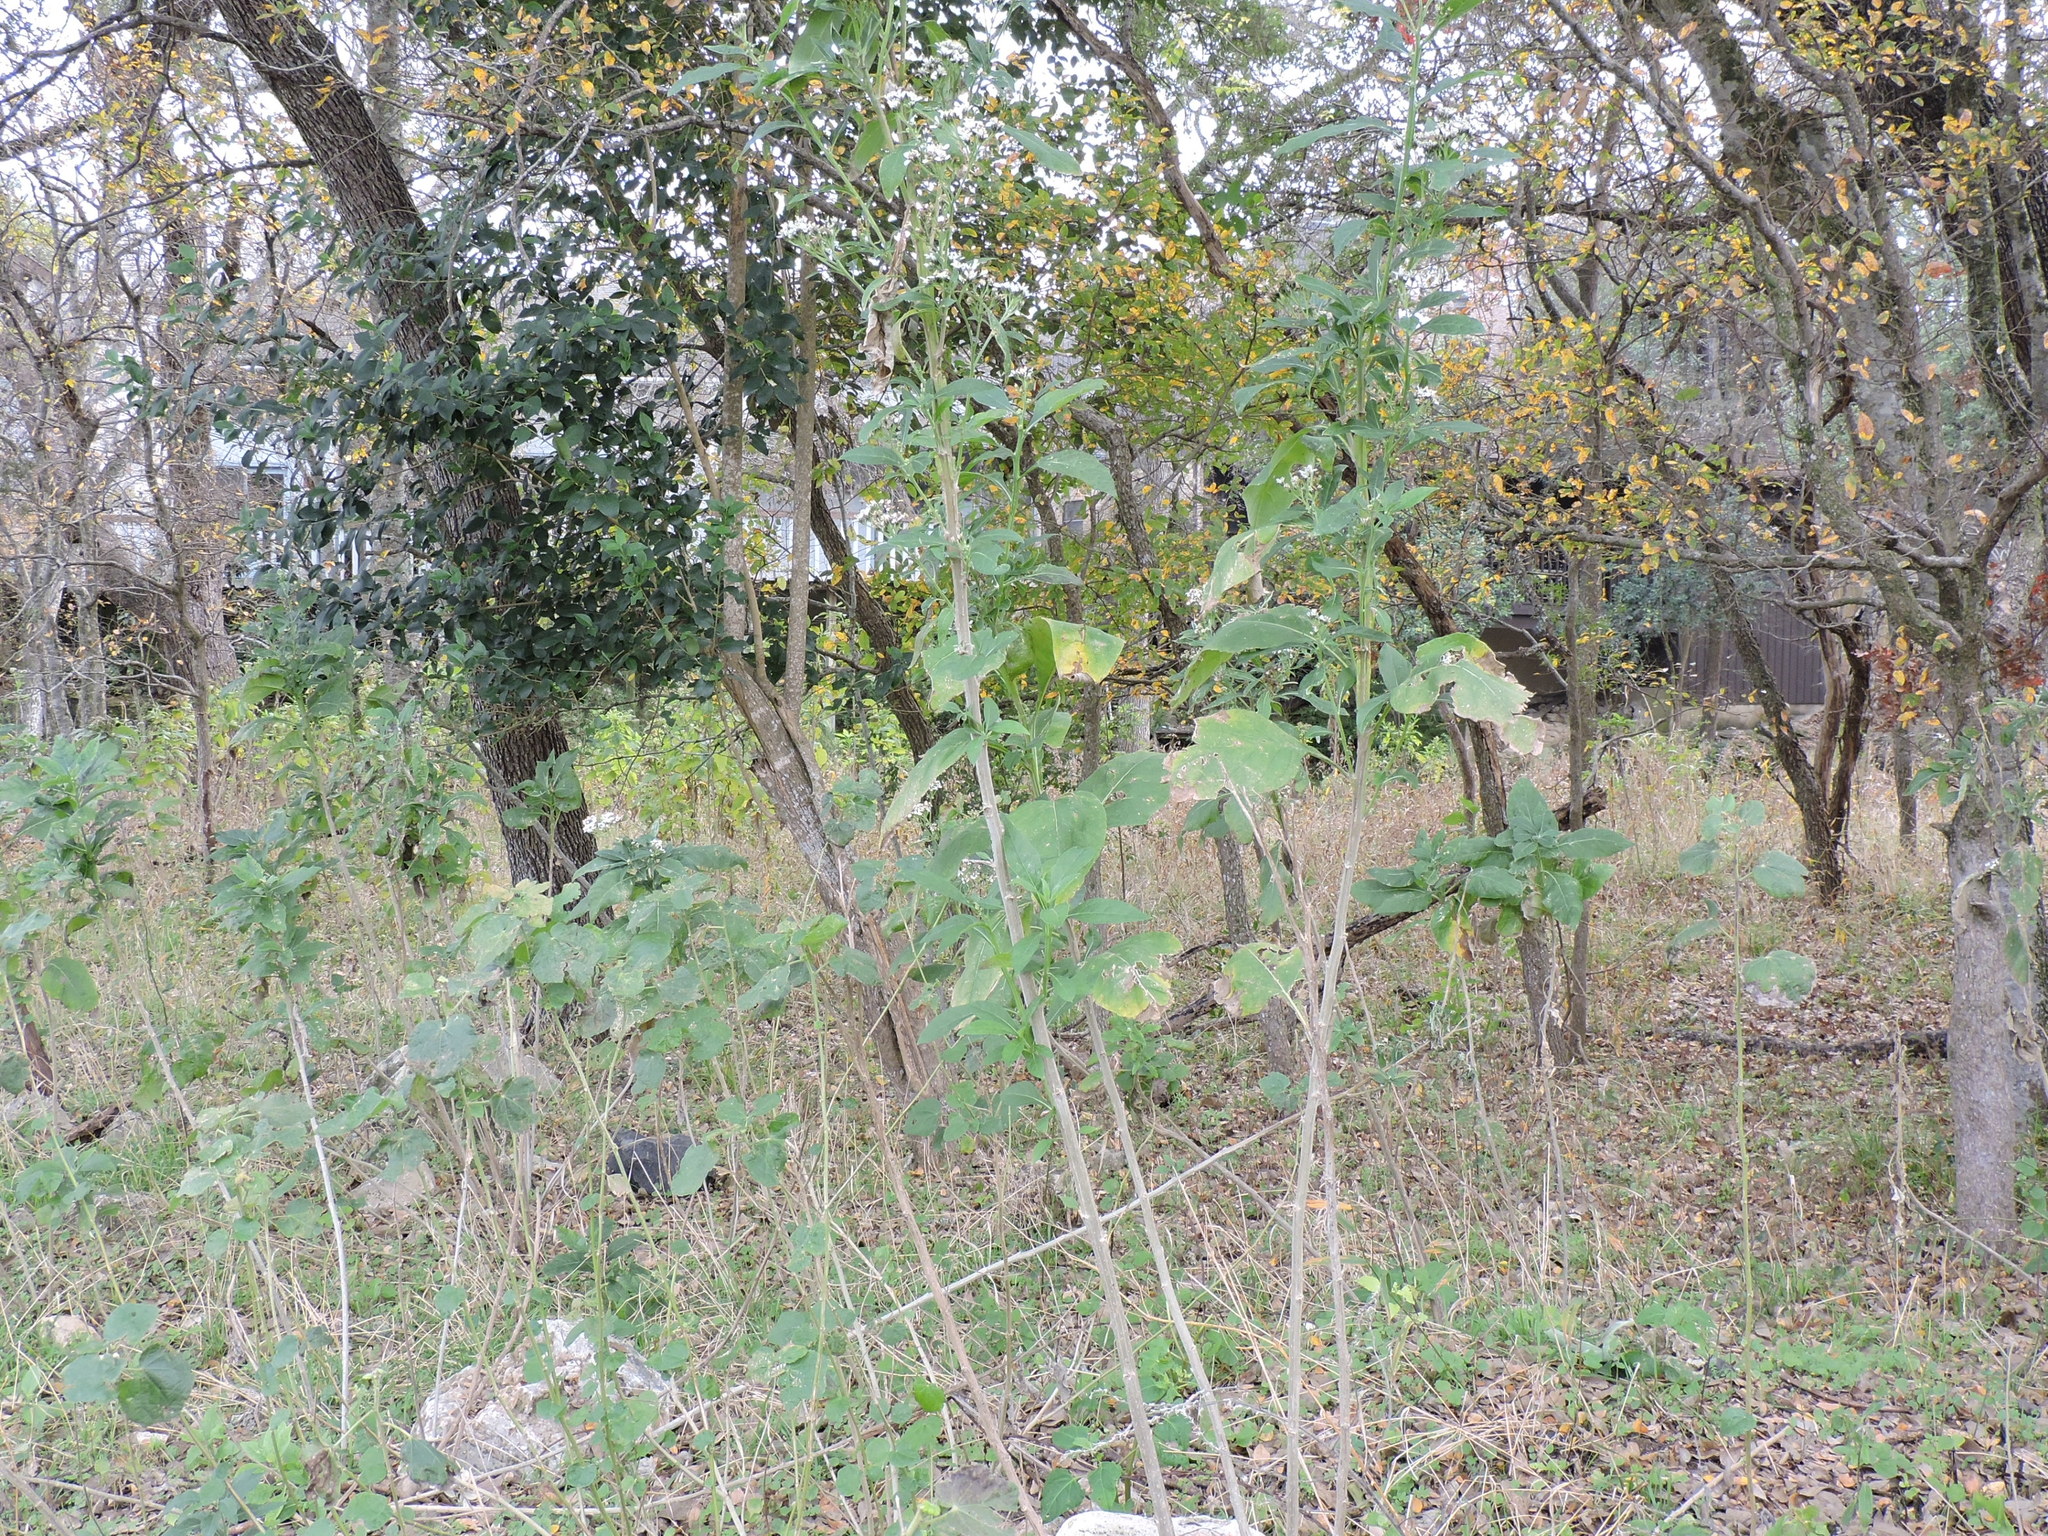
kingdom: Plantae
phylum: Tracheophyta
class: Magnoliopsida
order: Asterales
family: Asteraceae
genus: Verbesina
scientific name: Verbesina virginica
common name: Frostweed
